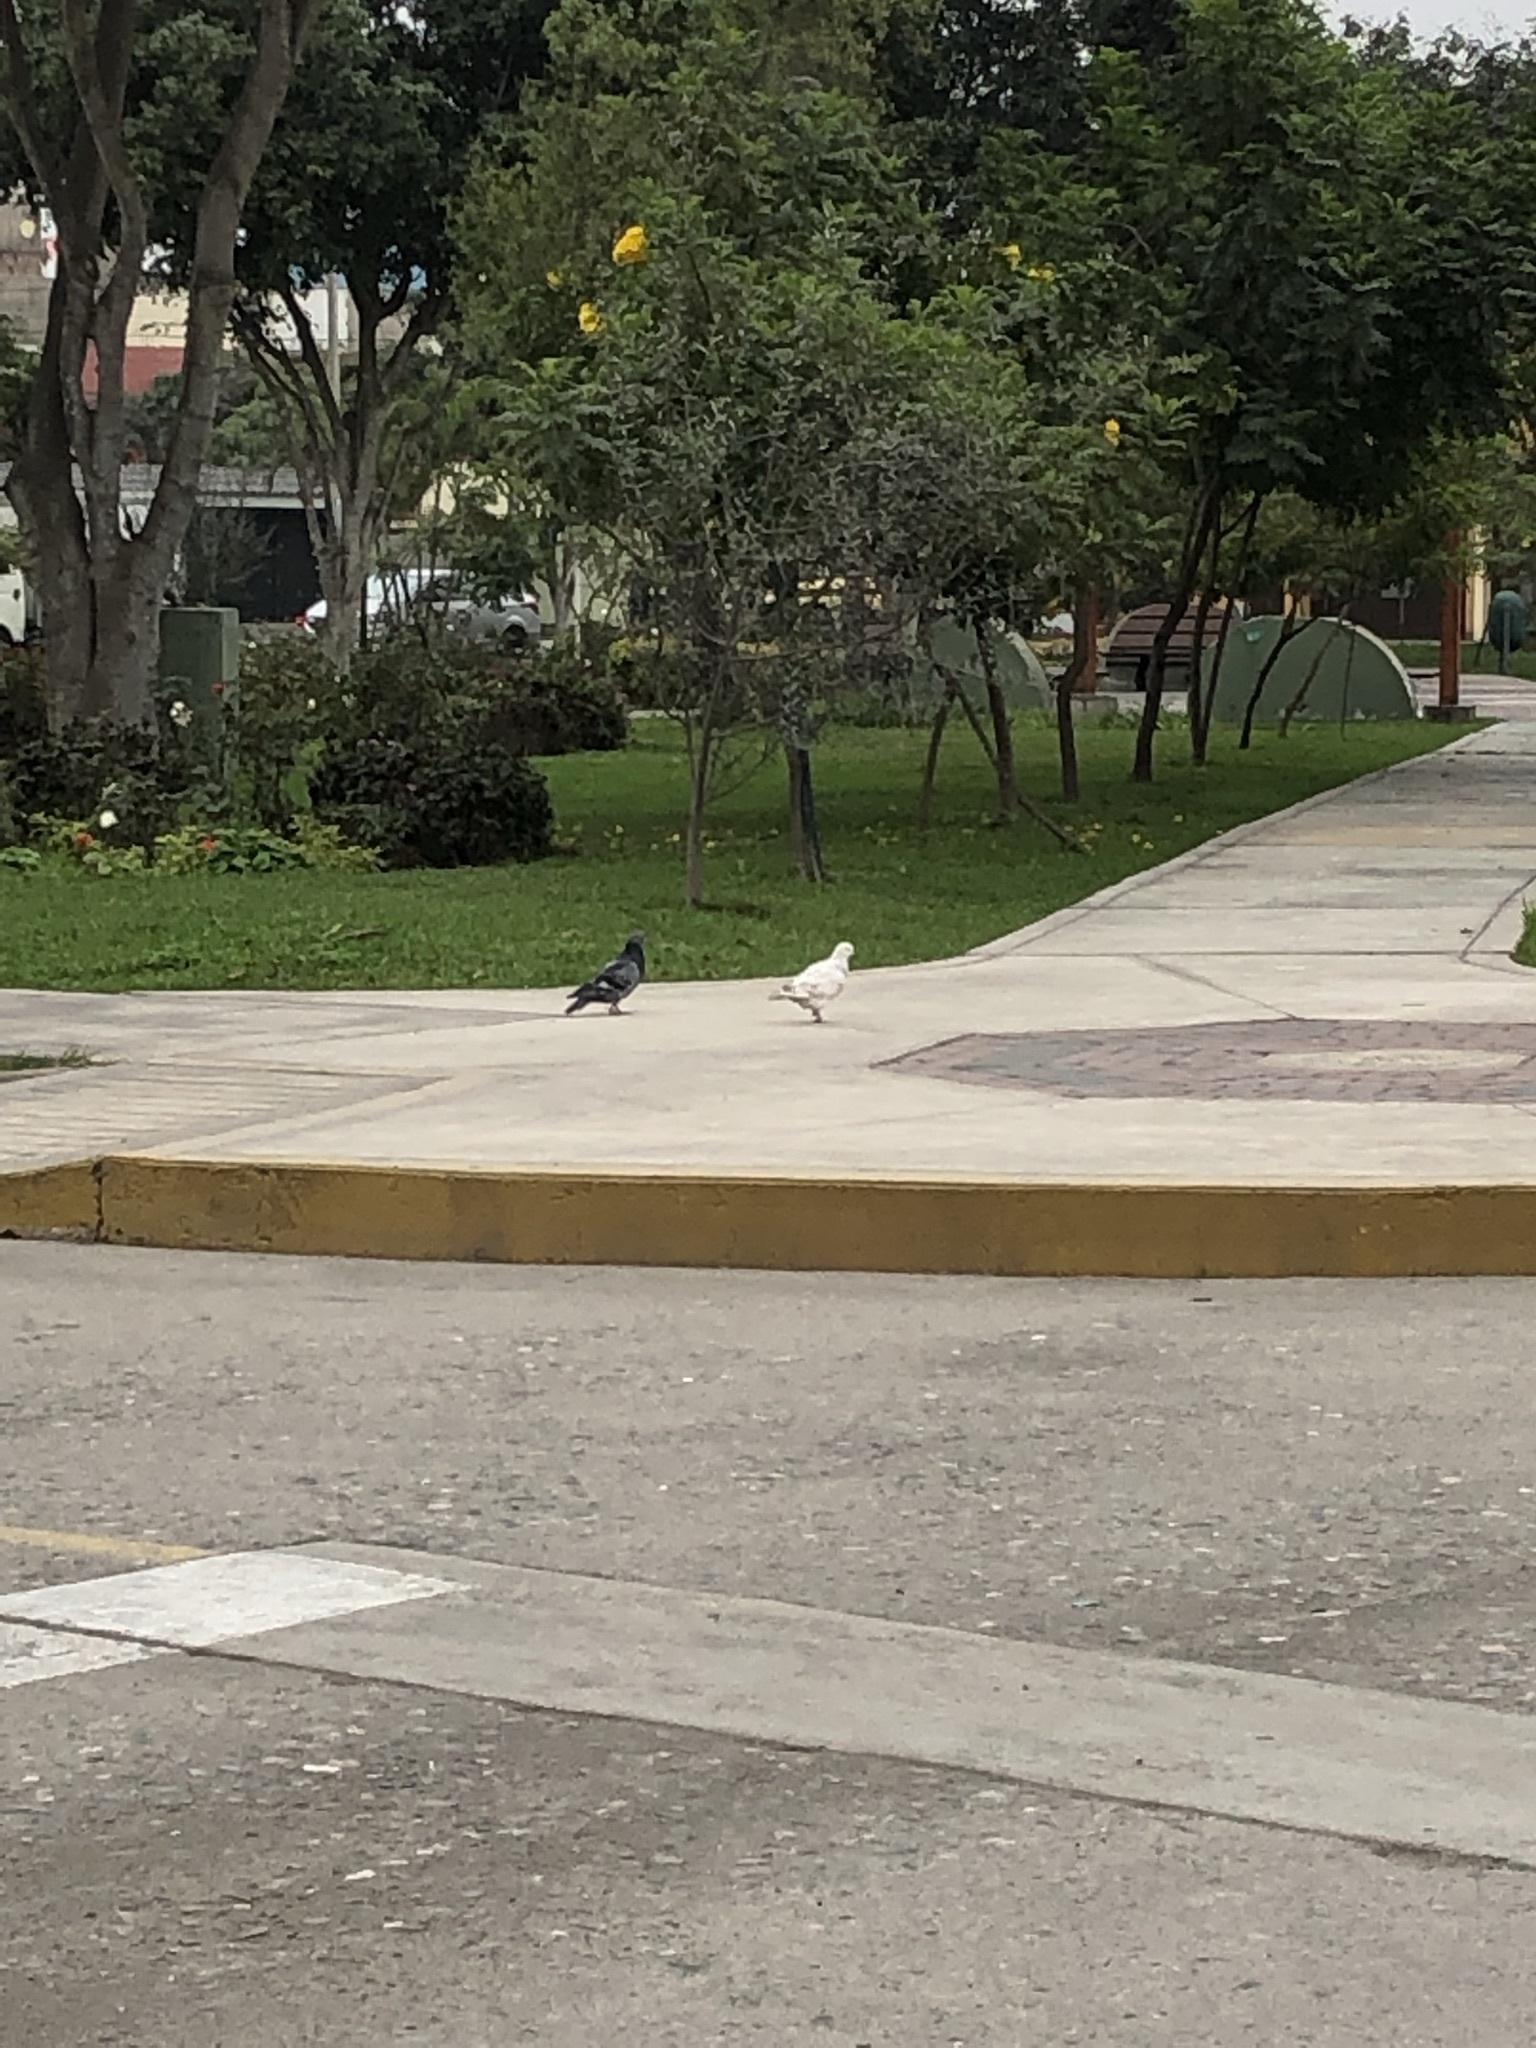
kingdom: Animalia
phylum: Chordata
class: Aves
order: Columbiformes
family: Columbidae
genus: Columba
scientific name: Columba livia
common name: Rock pigeon
